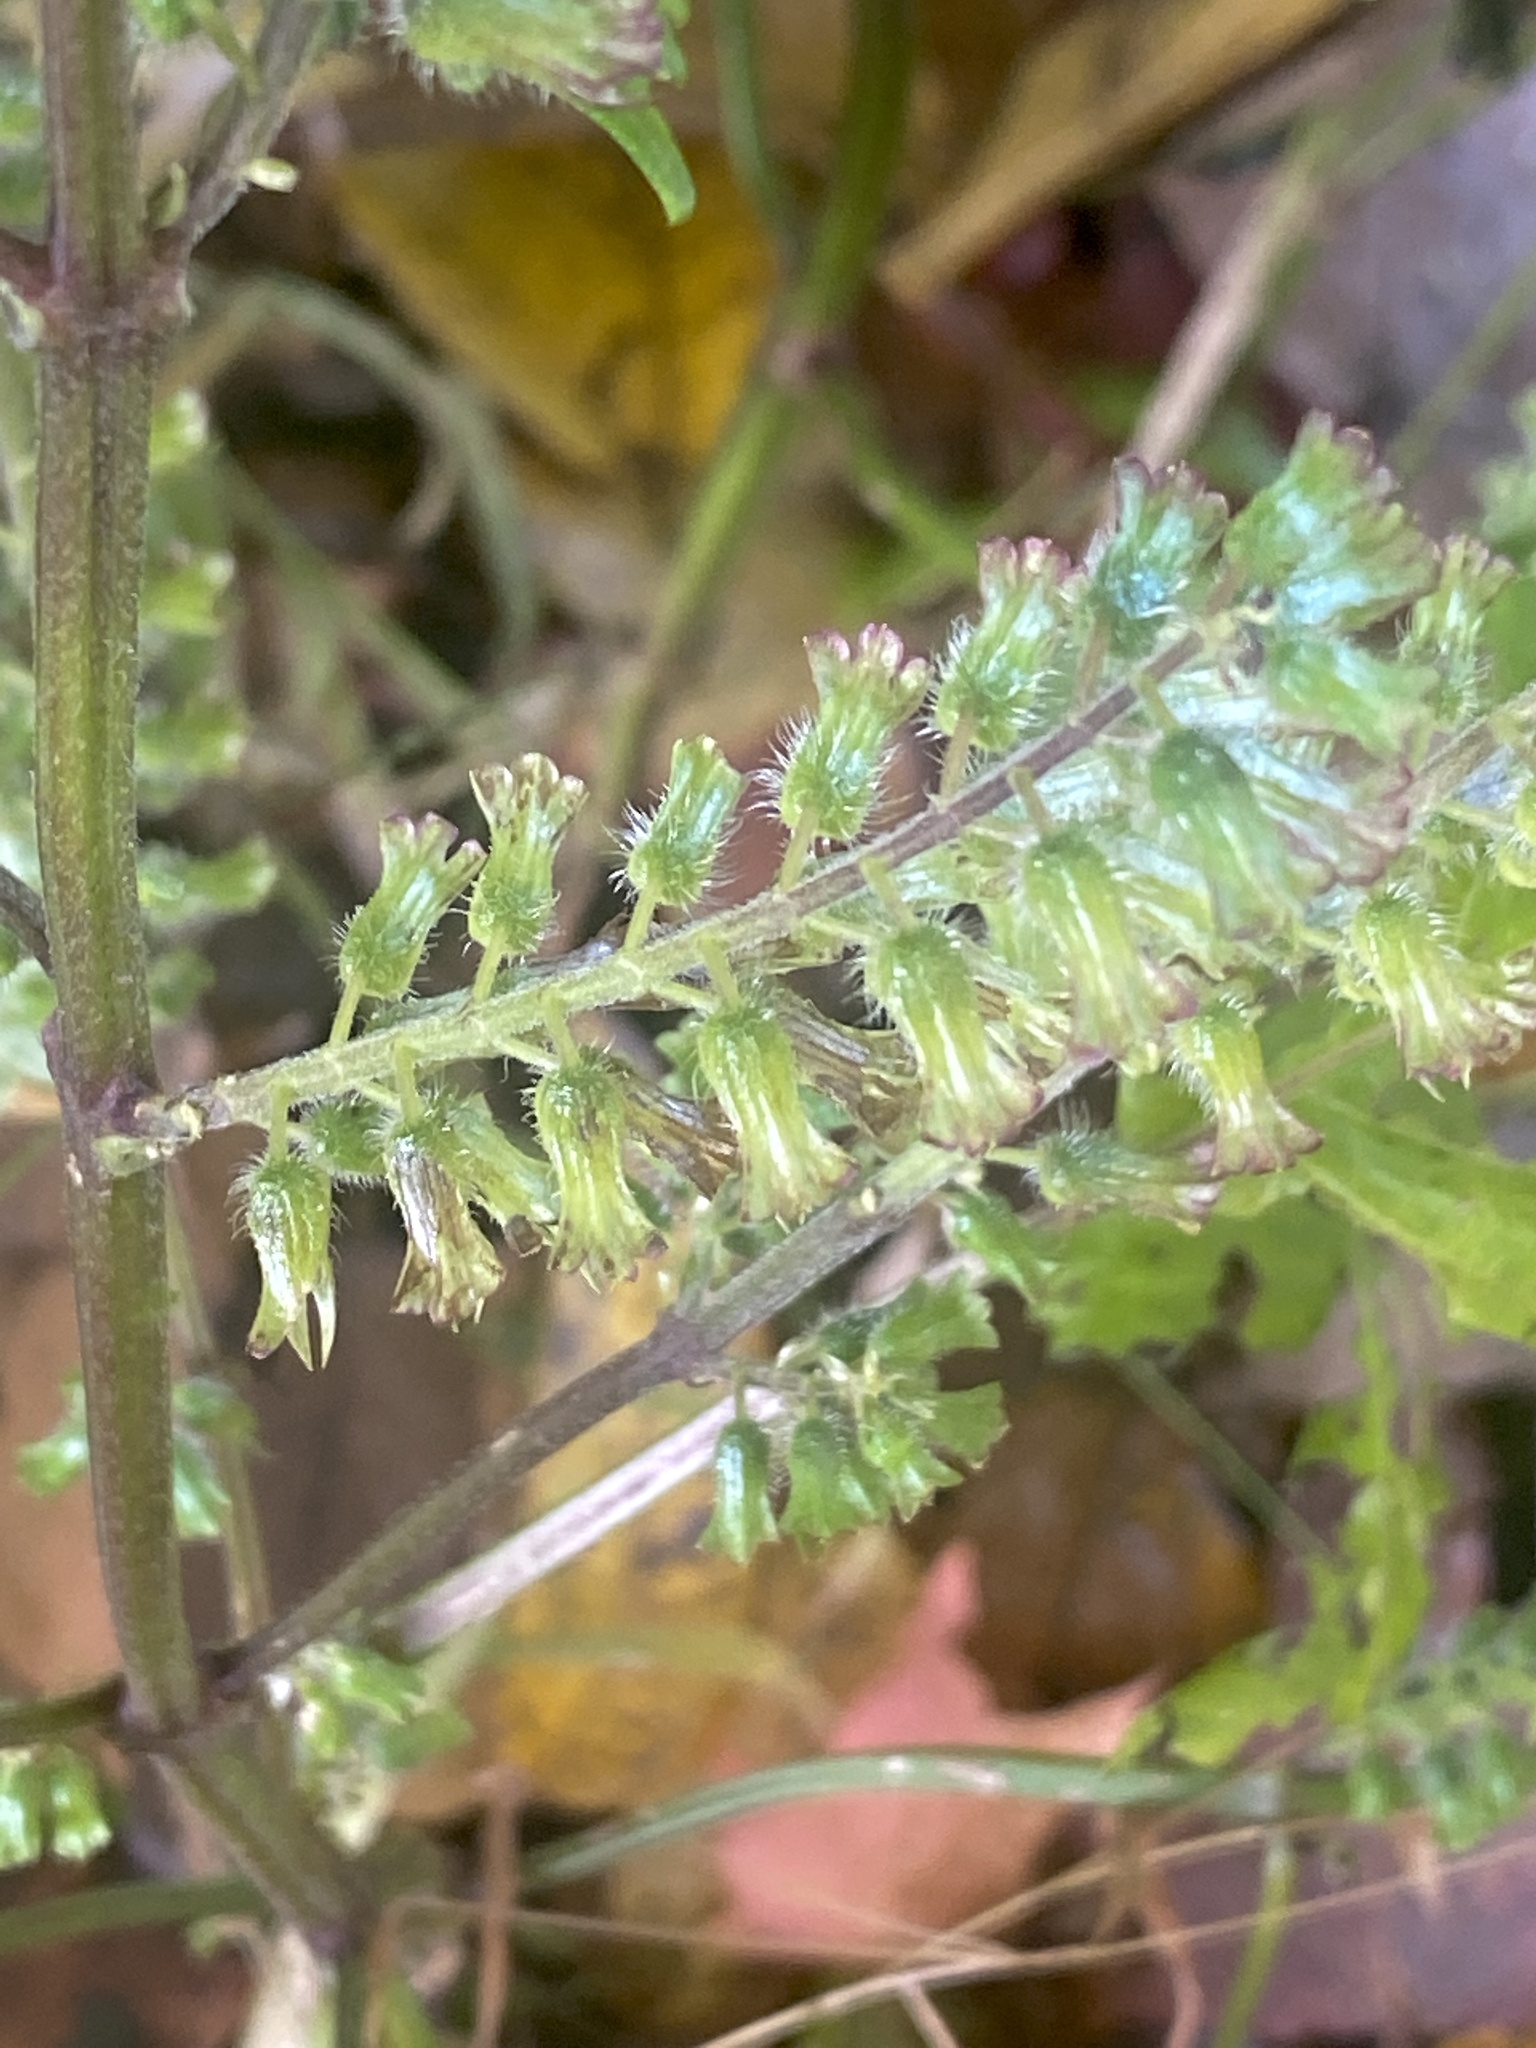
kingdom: Plantae
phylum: Tracheophyta
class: Magnoliopsida
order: Lamiales
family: Lamiaceae
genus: Perilla
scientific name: Perilla frutescens
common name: Perilla
